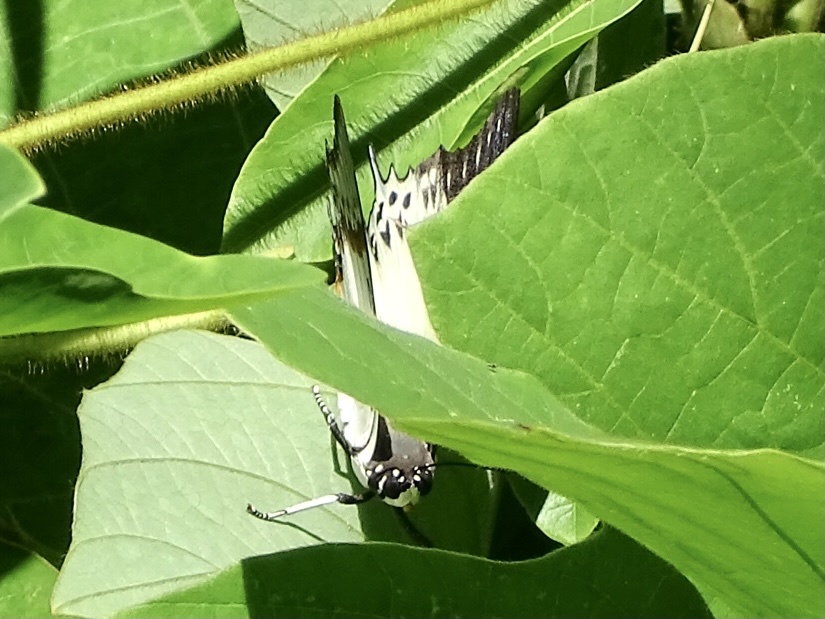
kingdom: Animalia
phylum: Arthropoda
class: Insecta
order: Lepidoptera
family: Nymphalidae
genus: Polyura
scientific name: Polyura nepenthes
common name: Shan nawab
